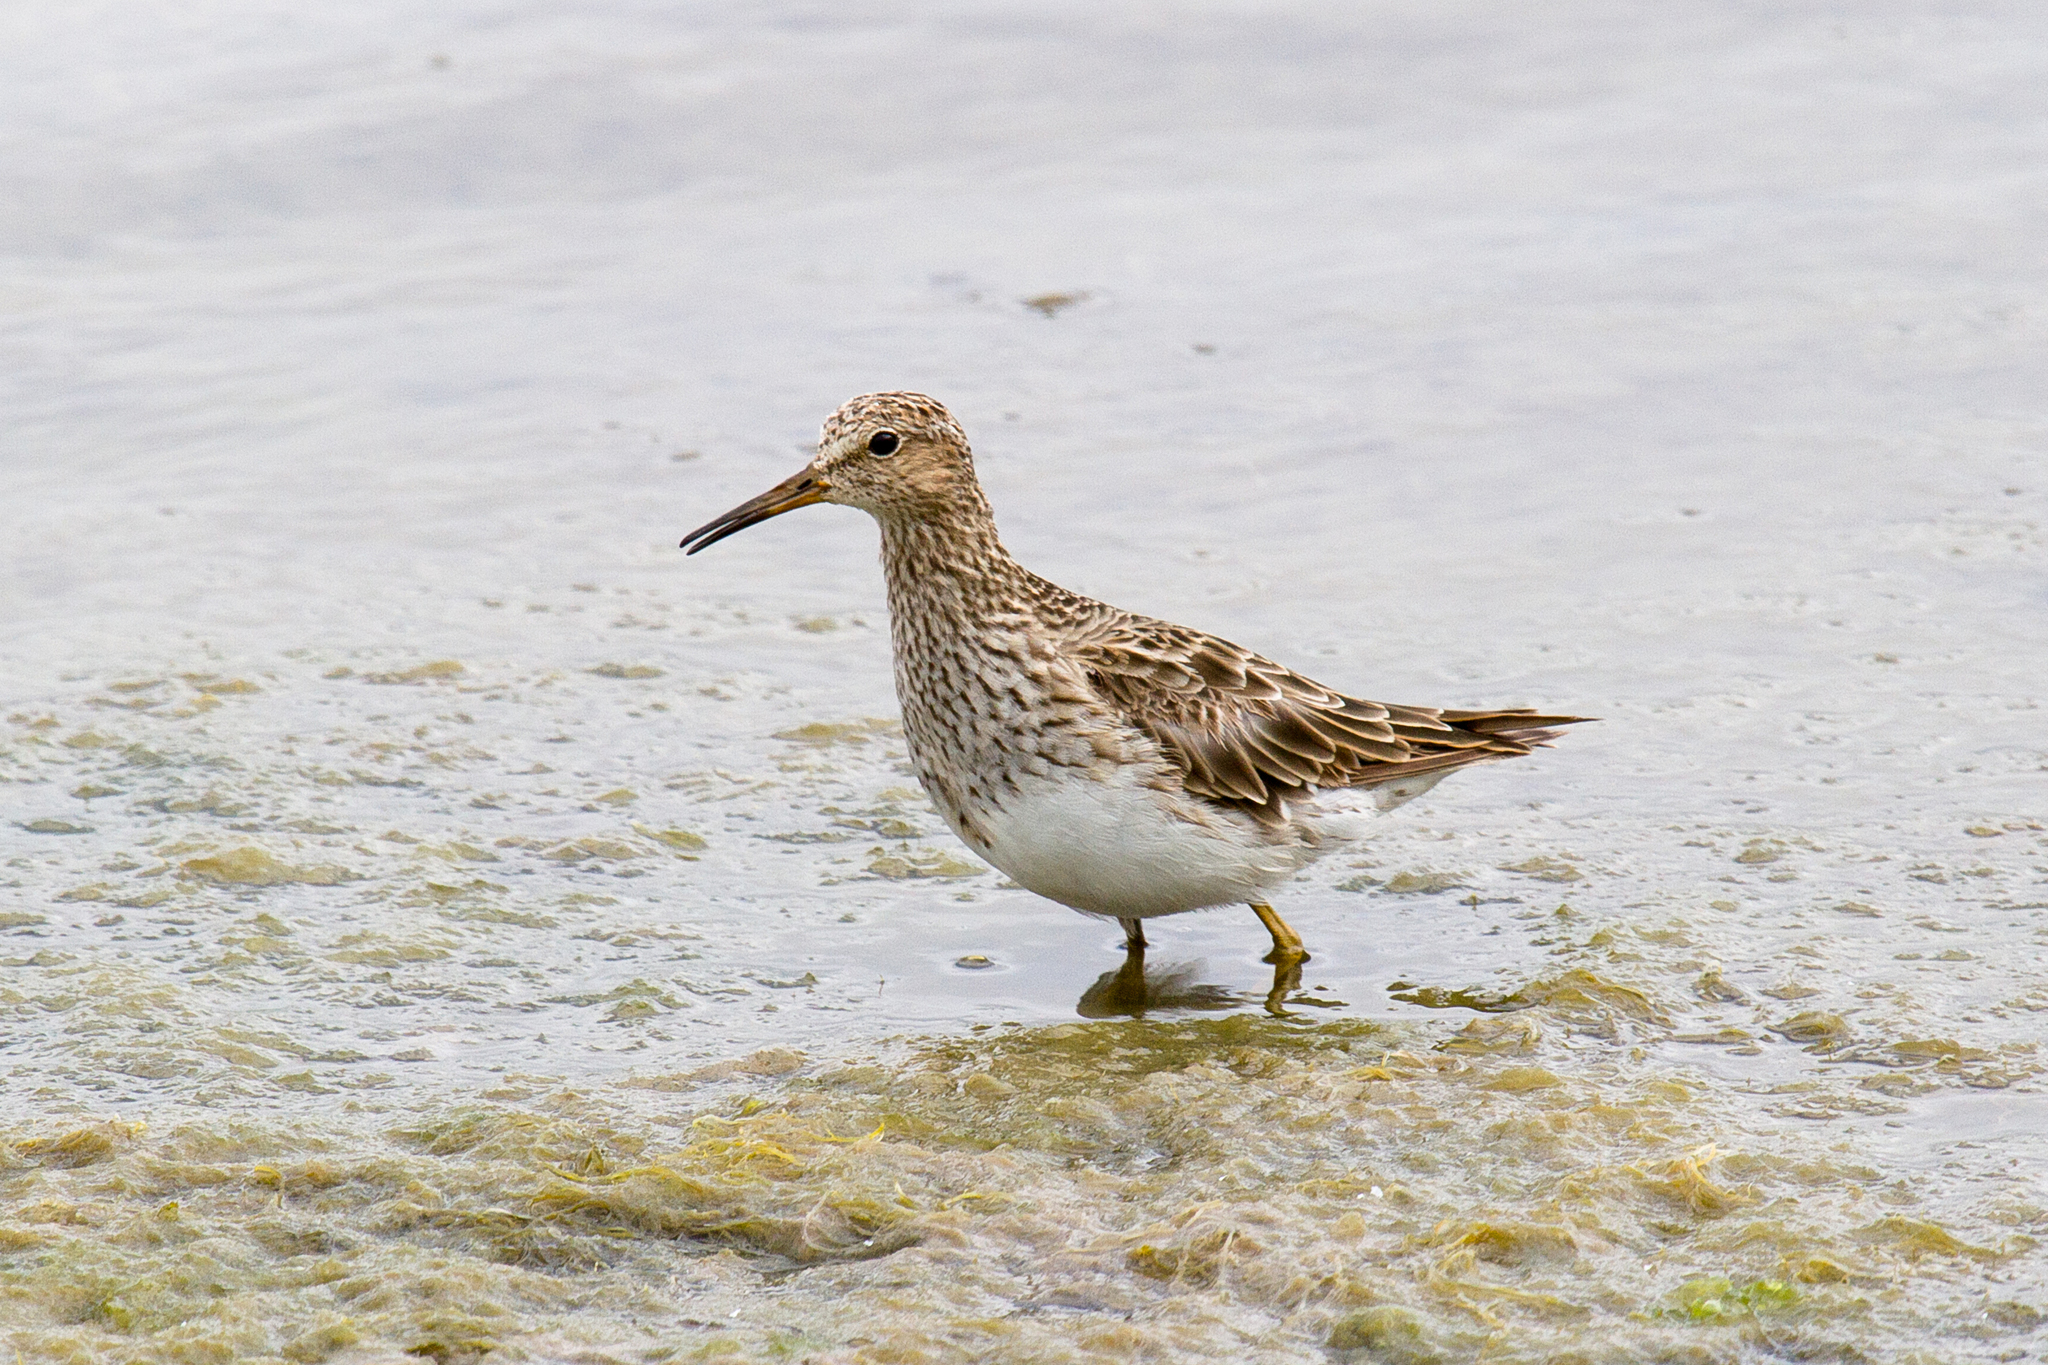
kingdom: Animalia
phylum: Chordata
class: Aves
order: Charadriiformes
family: Scolopacidae
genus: Calidris
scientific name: Calidris melanotos
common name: Pectoral sandpiper
